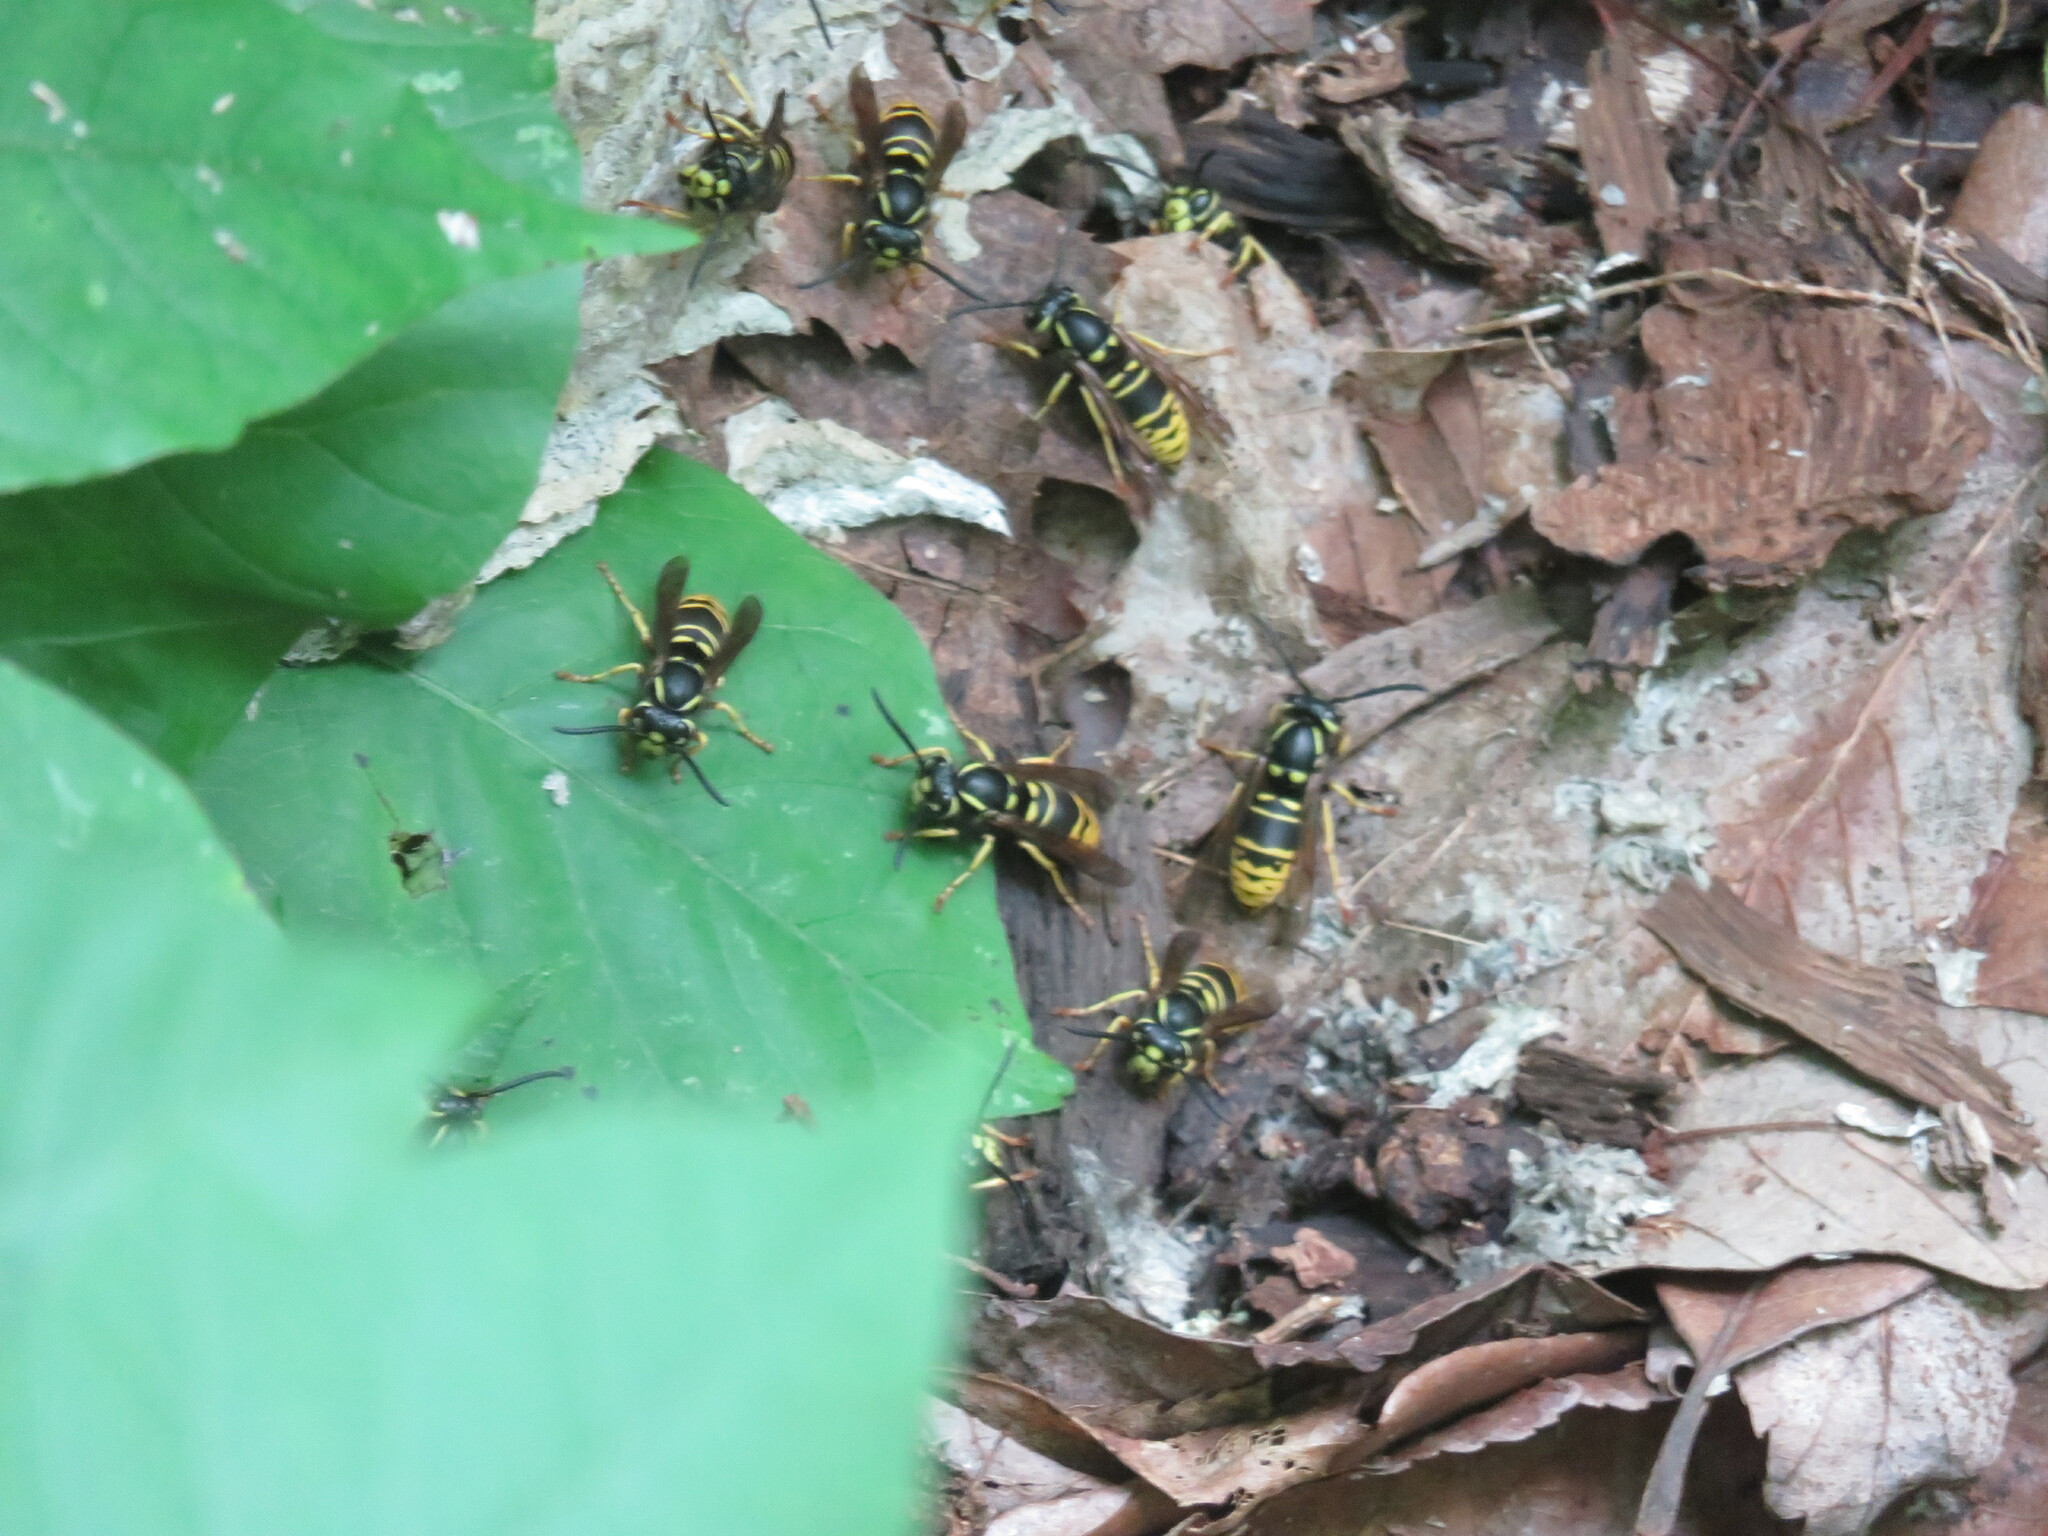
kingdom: Animalia
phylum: Arthropoda
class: Insecta
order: Hymenoptera
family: Vespidae
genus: Vespula
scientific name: Vespula vidua
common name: Widow yellowjacket
